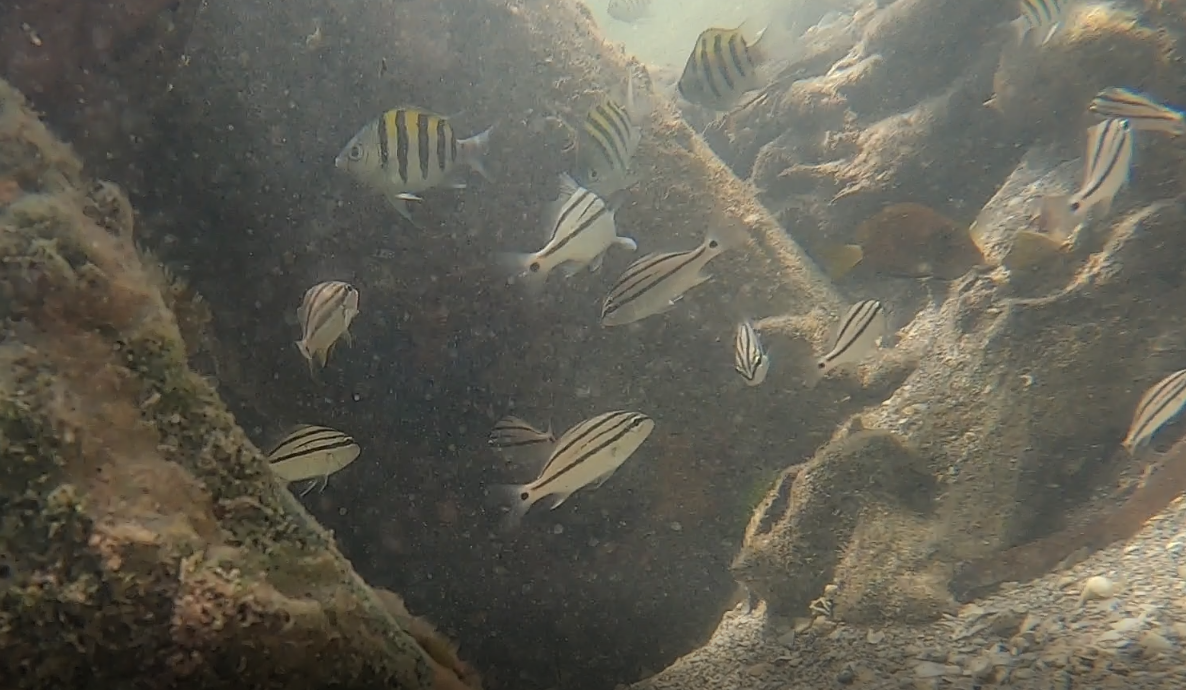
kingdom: Animalia
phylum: Chordata
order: Perciformes
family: Pomacentridae
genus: Abudefduf
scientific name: Abudefduf saxatilis
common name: Sergeant major
